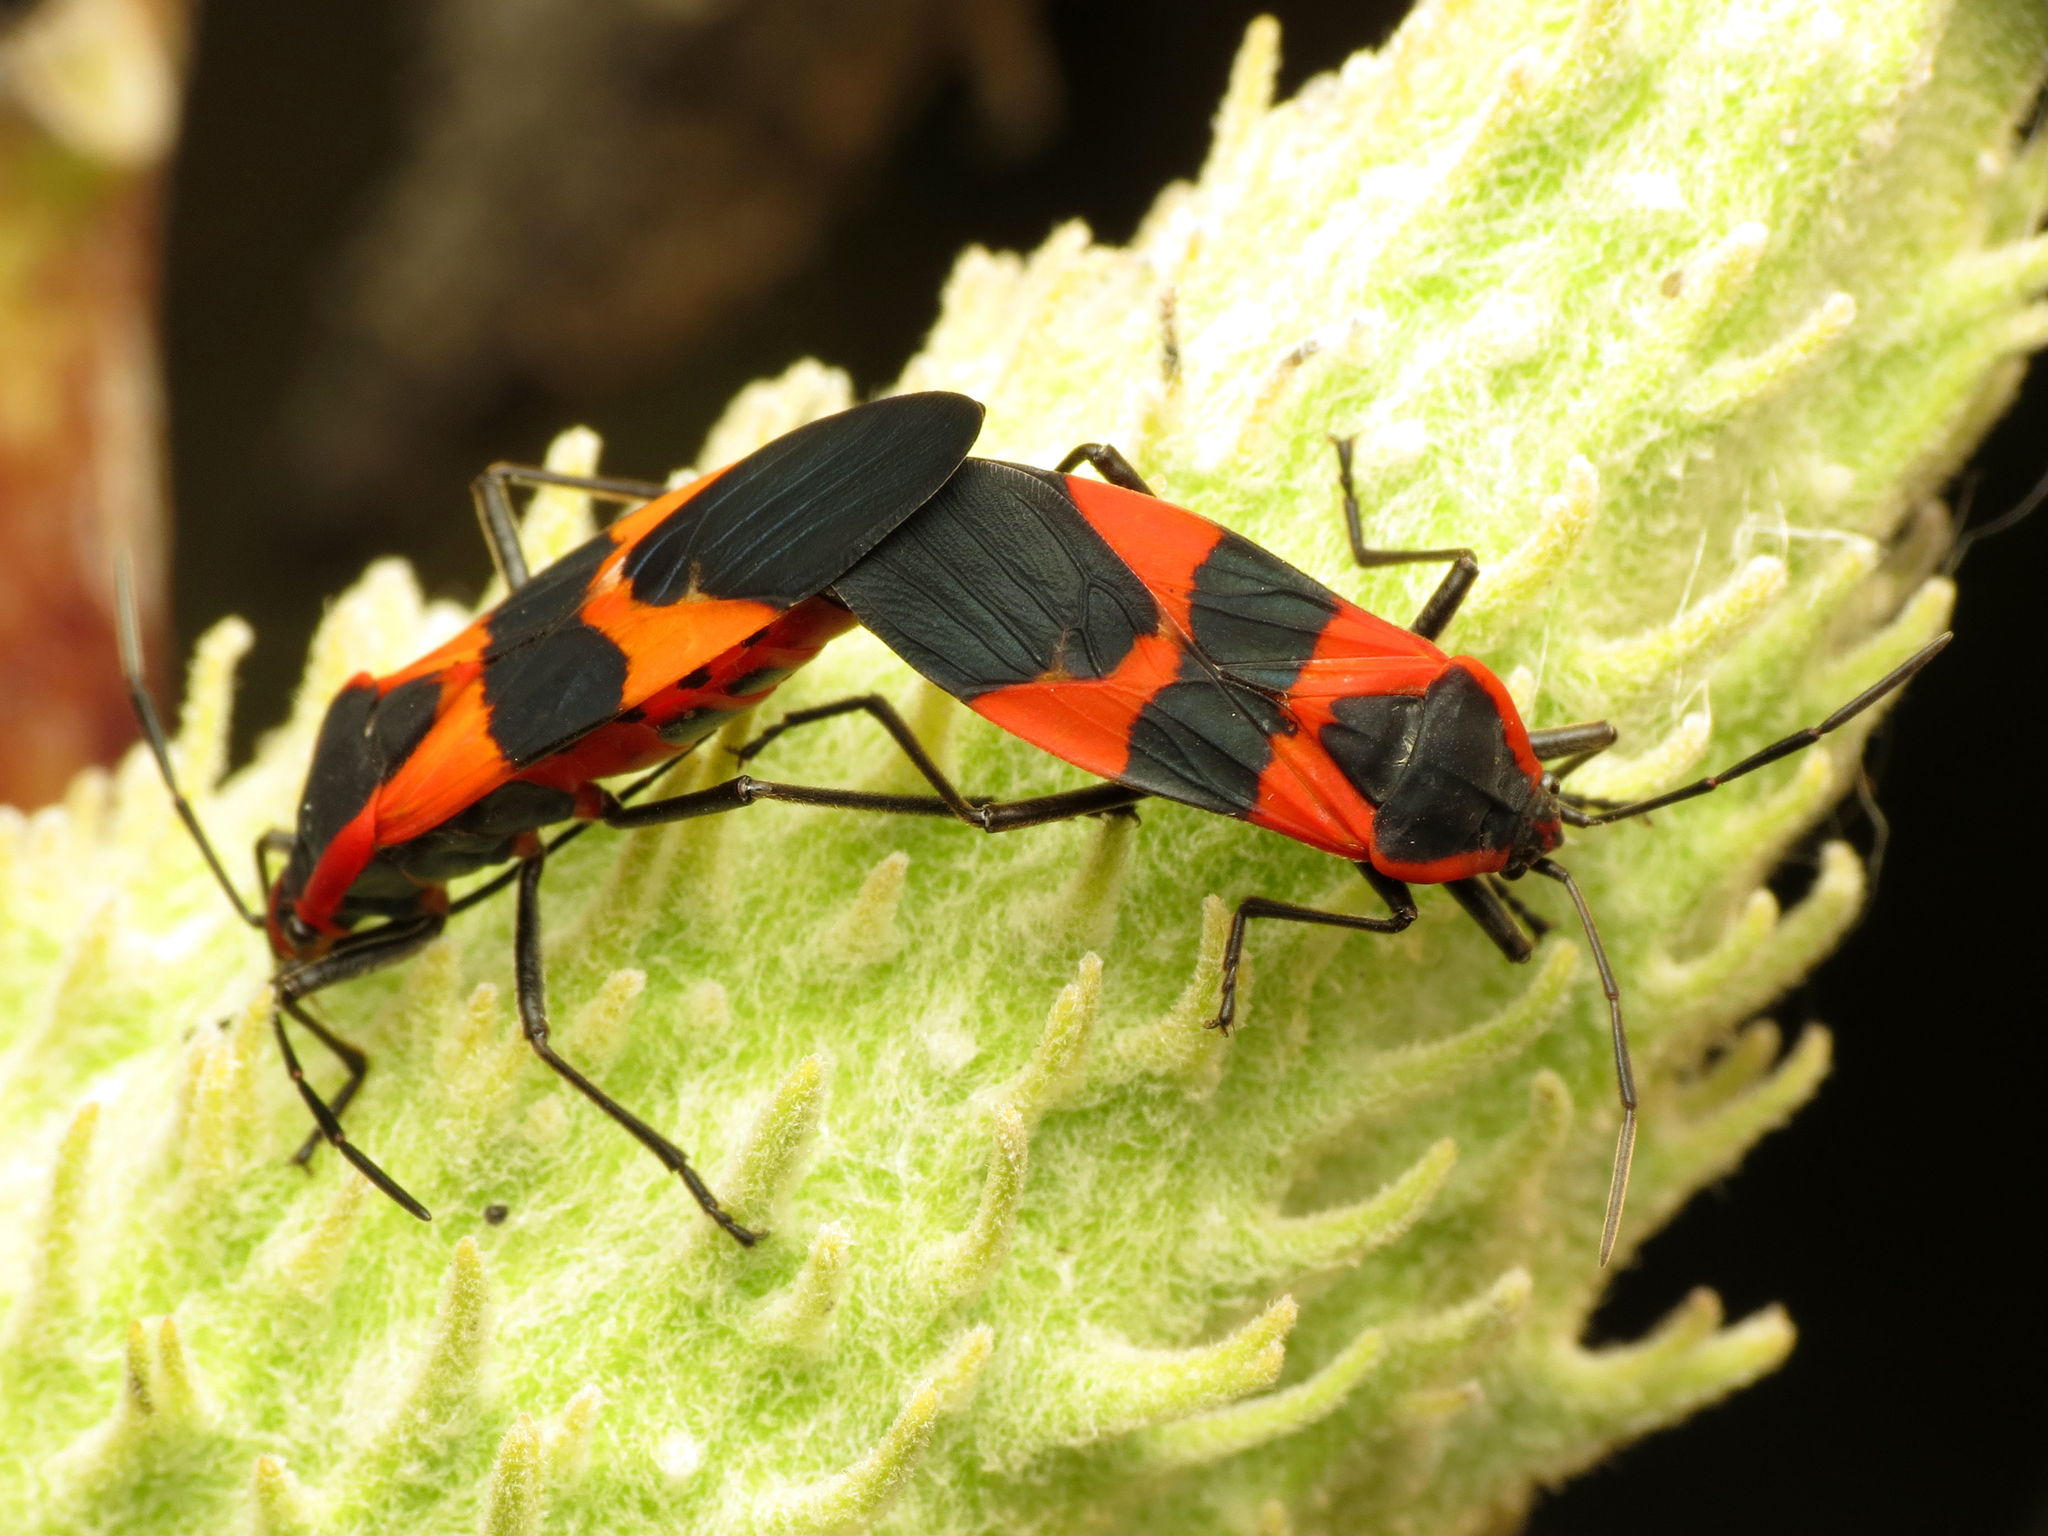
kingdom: Animalia
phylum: Arthropoda
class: Insecta
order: Hemiptera
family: Lygaeidae
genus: Oncopeltus
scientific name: Oncopeltus fasciatus
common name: Large milkweed bug
